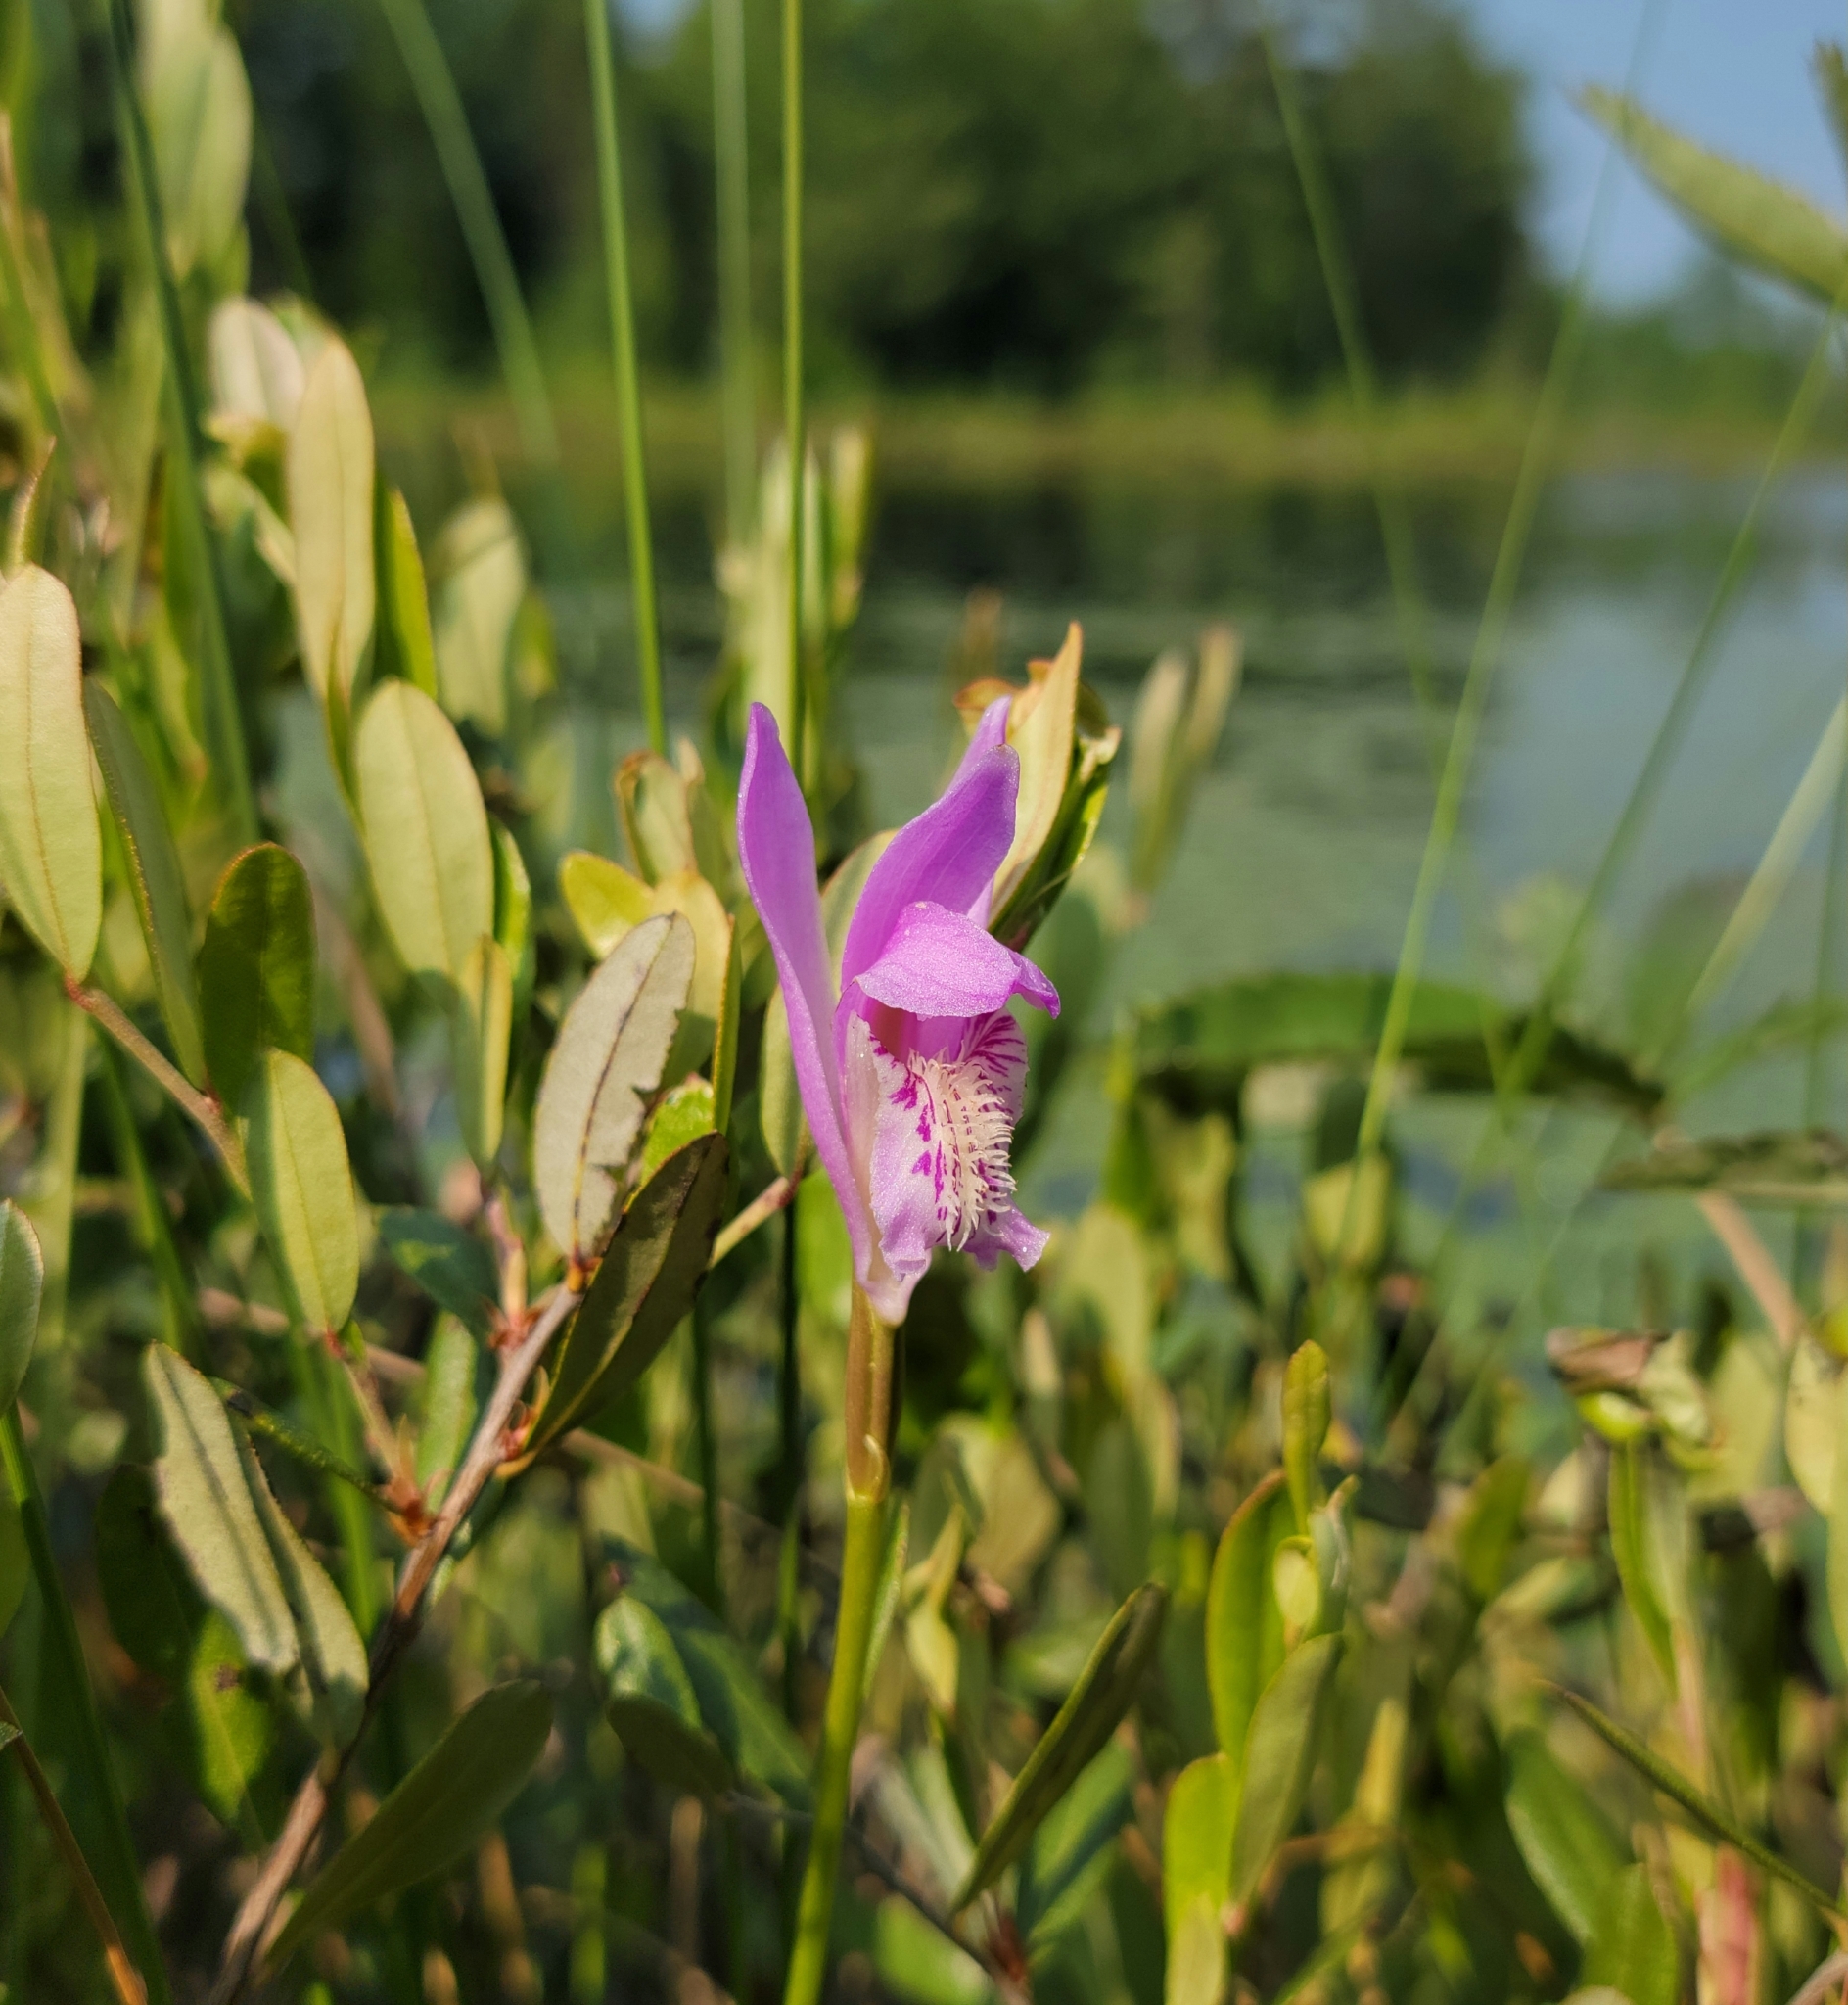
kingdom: Plantae
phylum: Tracheophyta
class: Liliopsida
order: Asparagales
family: Orchidaceae
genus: Arethusa
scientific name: Arethusa bulbosa
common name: Arethusa
